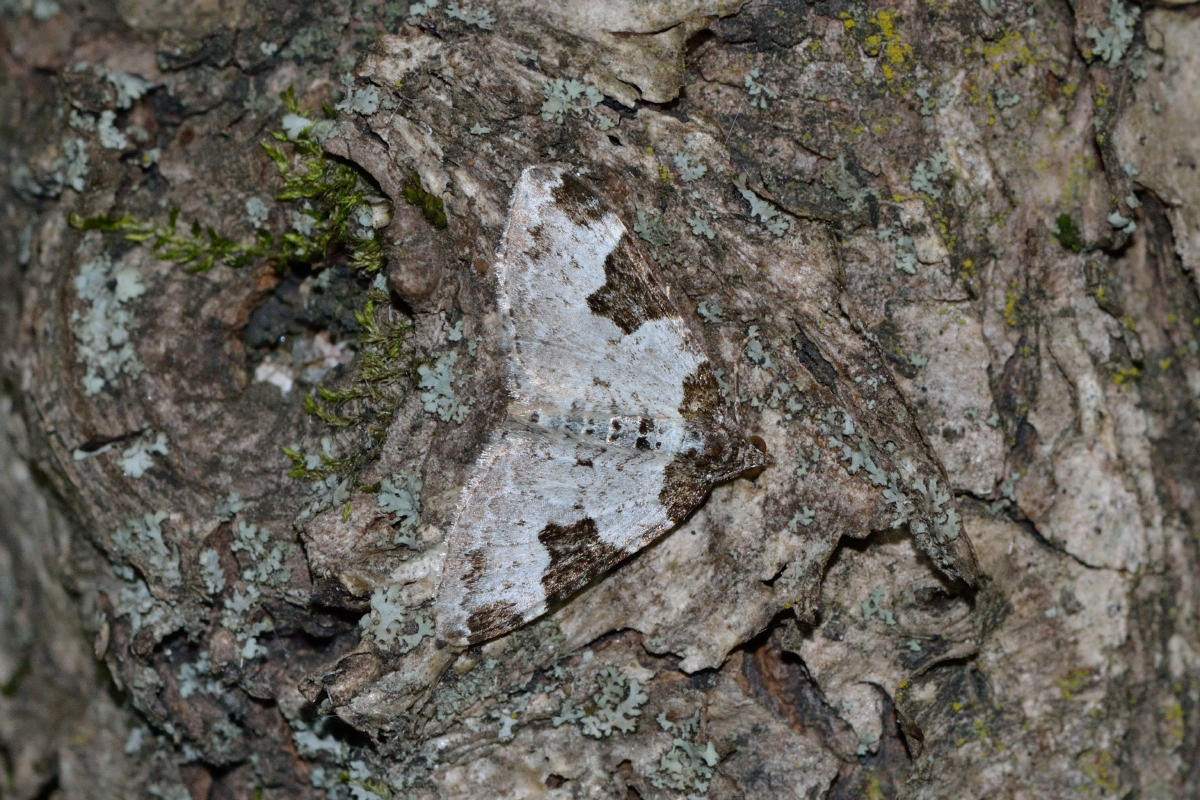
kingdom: Animalia
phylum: Arthropoda
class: Insecta
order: Lepidoptera
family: Geometridae
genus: Xanthorhoe
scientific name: Xanthorhoe fluctuata
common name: Garden carpet
